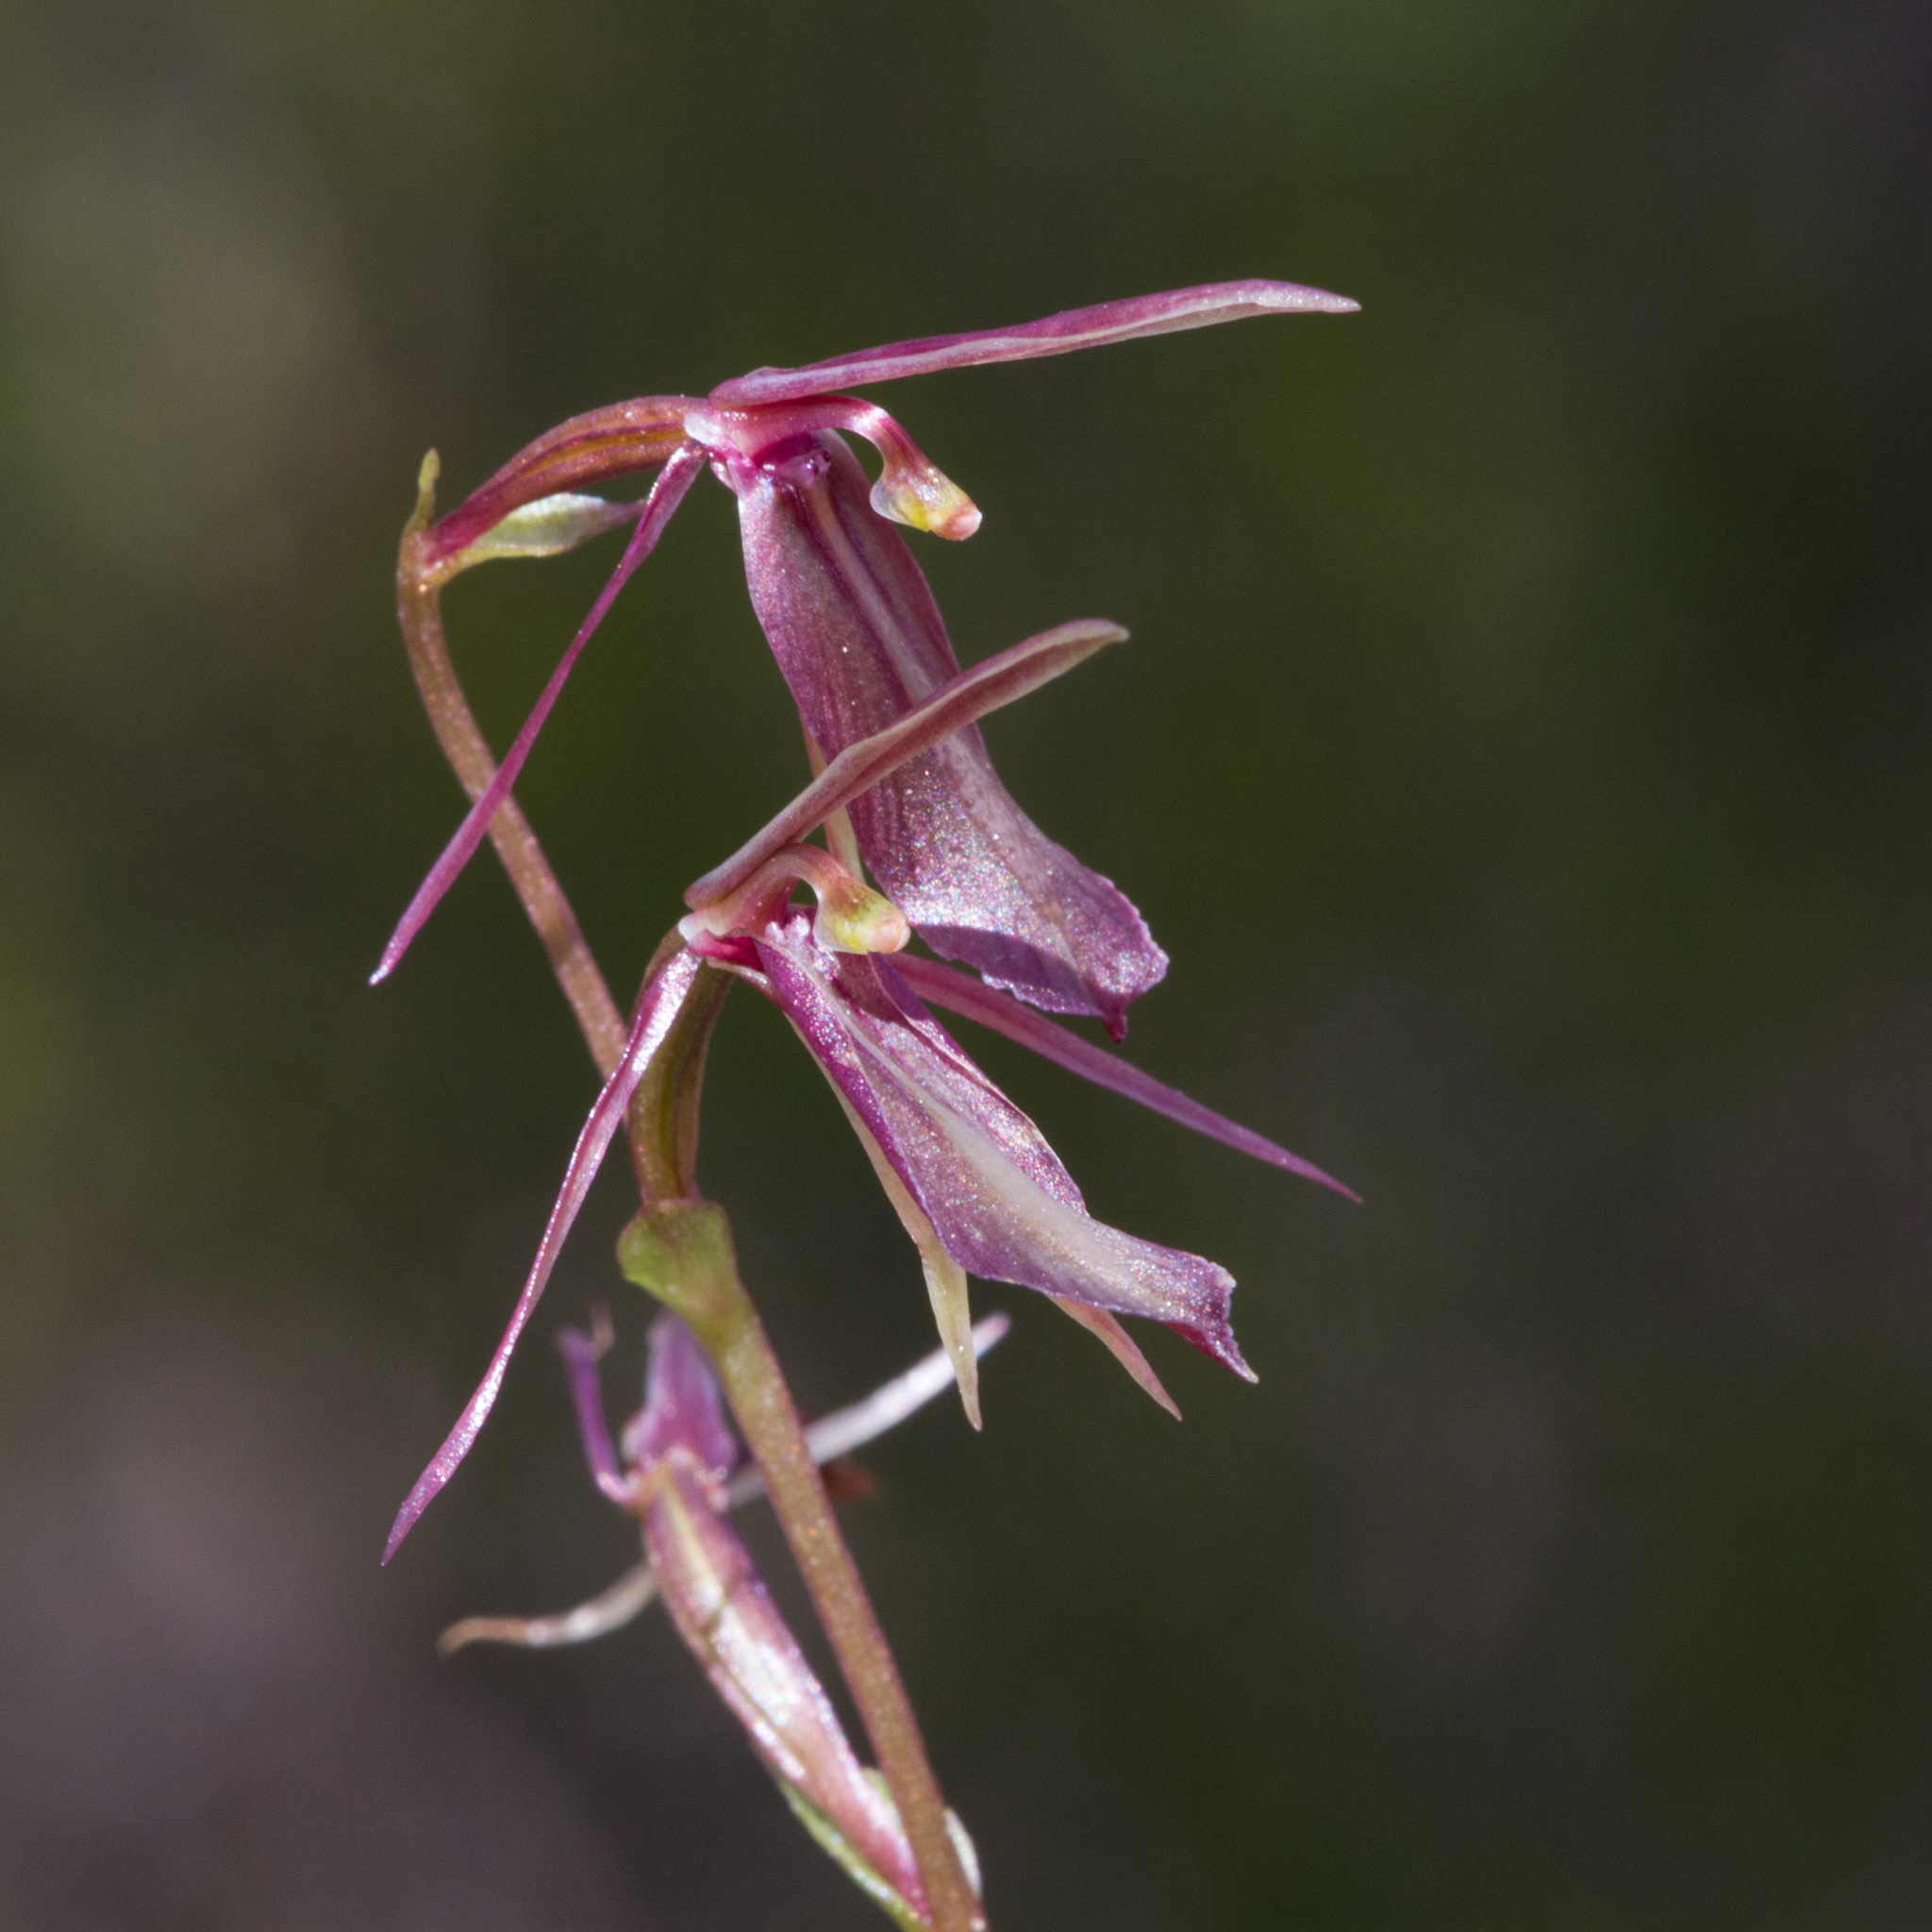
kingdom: Plantae
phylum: Tracheophyta
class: Liliopsida
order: Asparagales
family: Orchidaceae
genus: Cyrtostylis
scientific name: Cyrtostylis robusta
